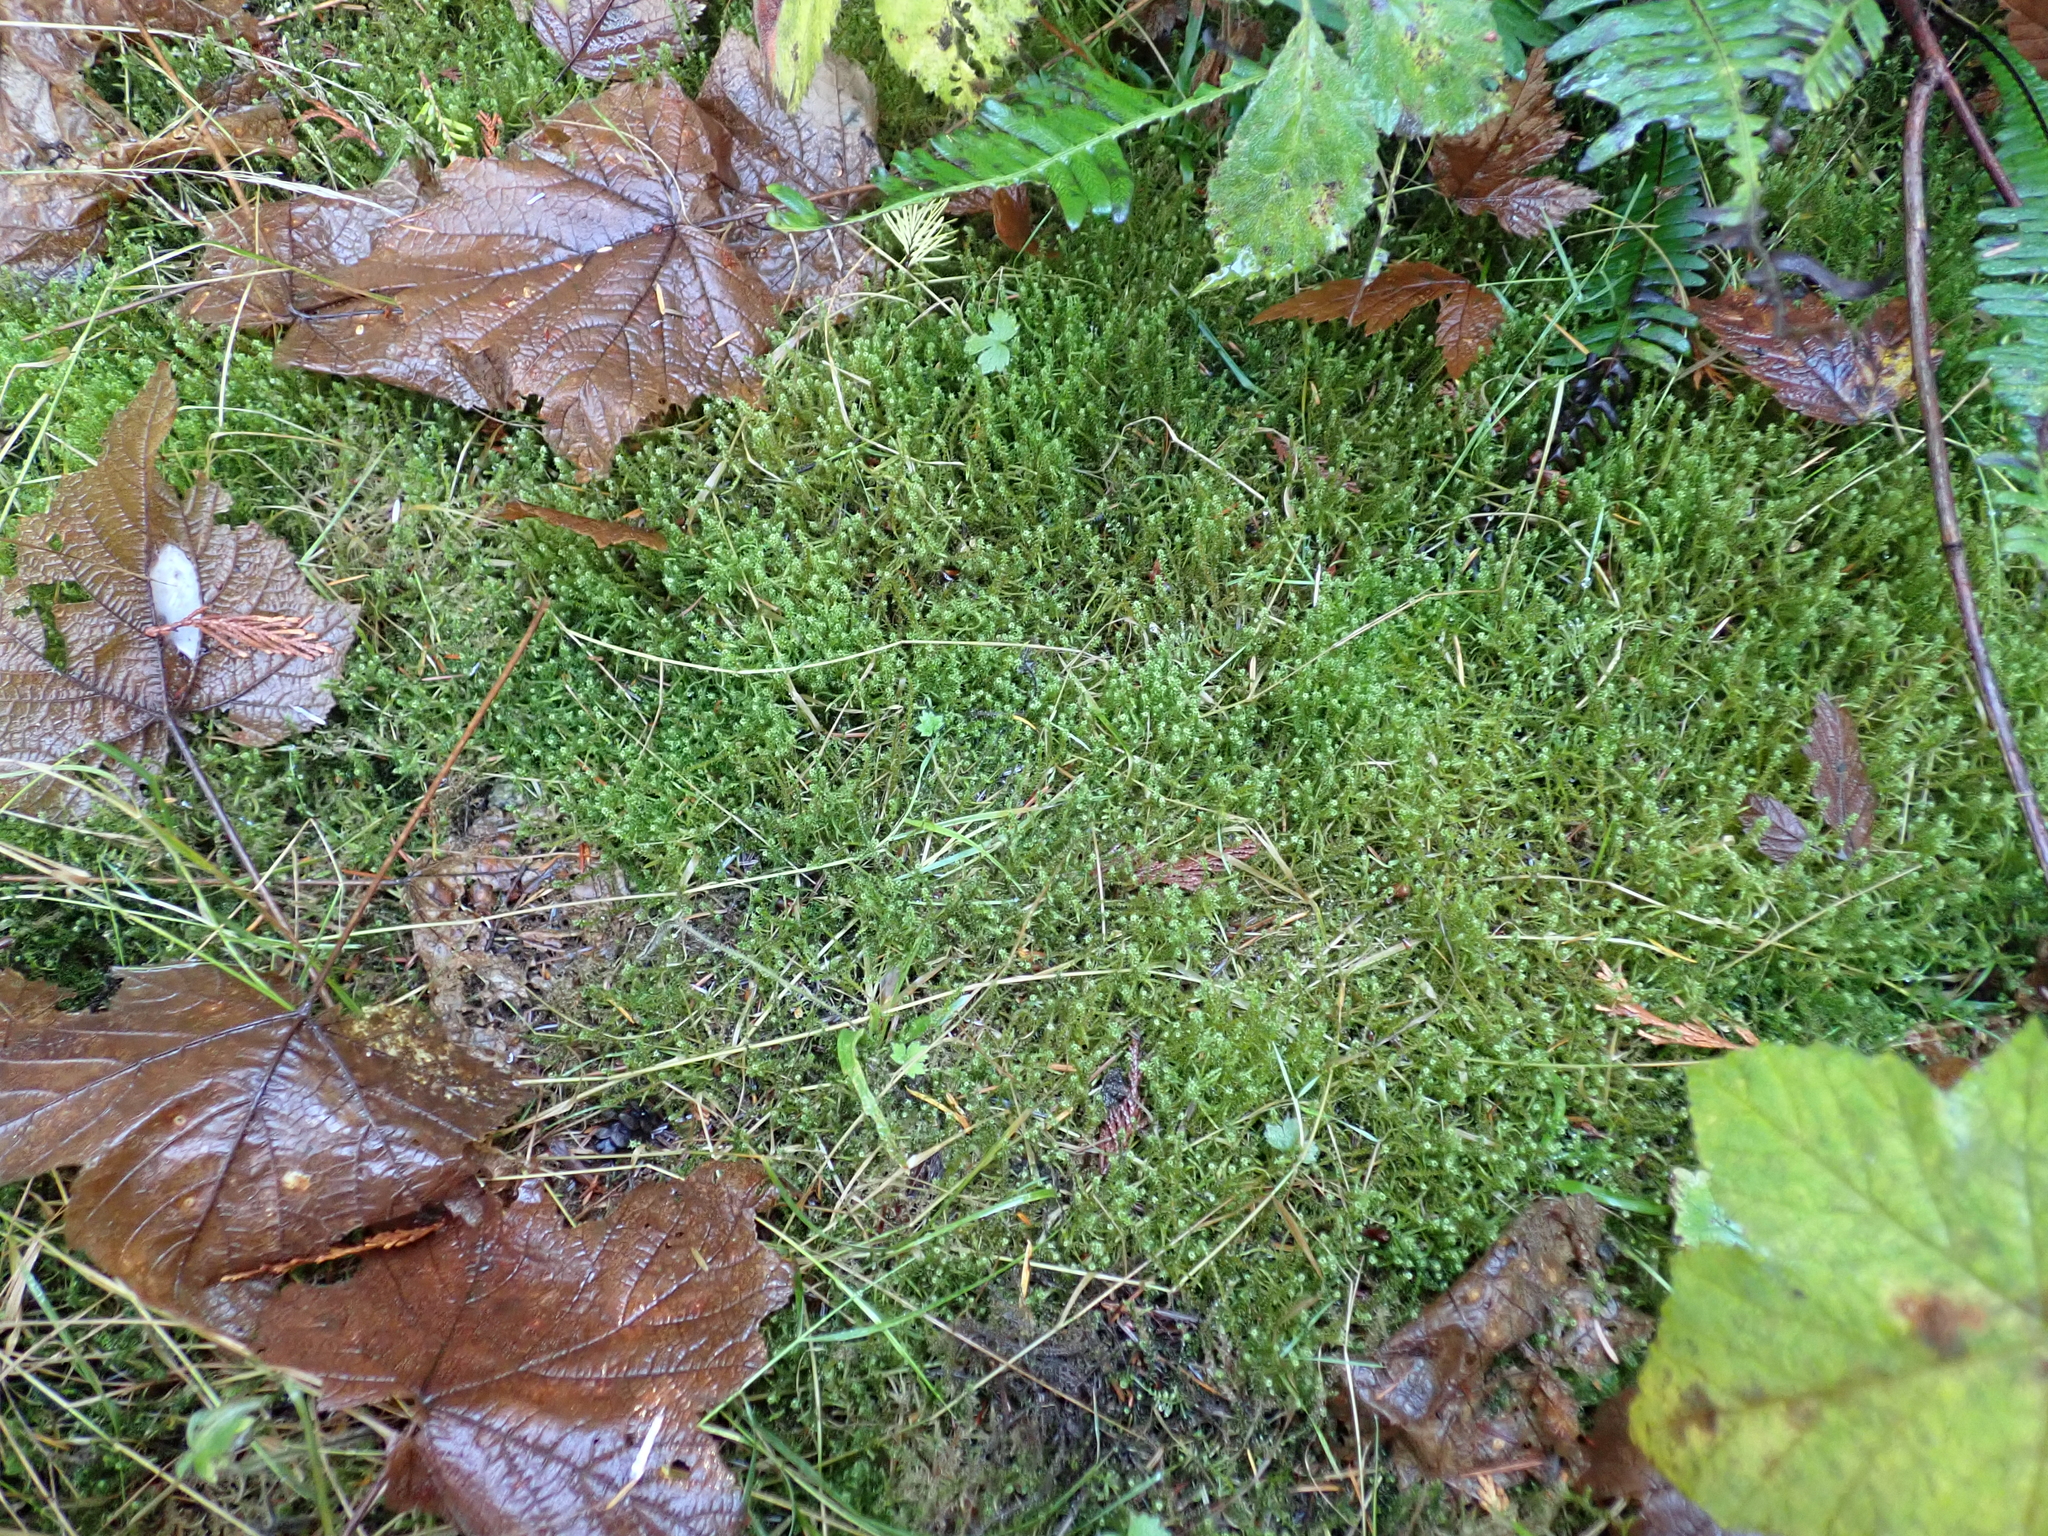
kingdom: Plantae
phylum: Bryophyta
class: Bryopsida
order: Hypnales
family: Hylocomiaceae
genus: Rhytidiadelphus
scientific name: Rhytidiadelphus squarrosus
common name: Springy turf-moss
